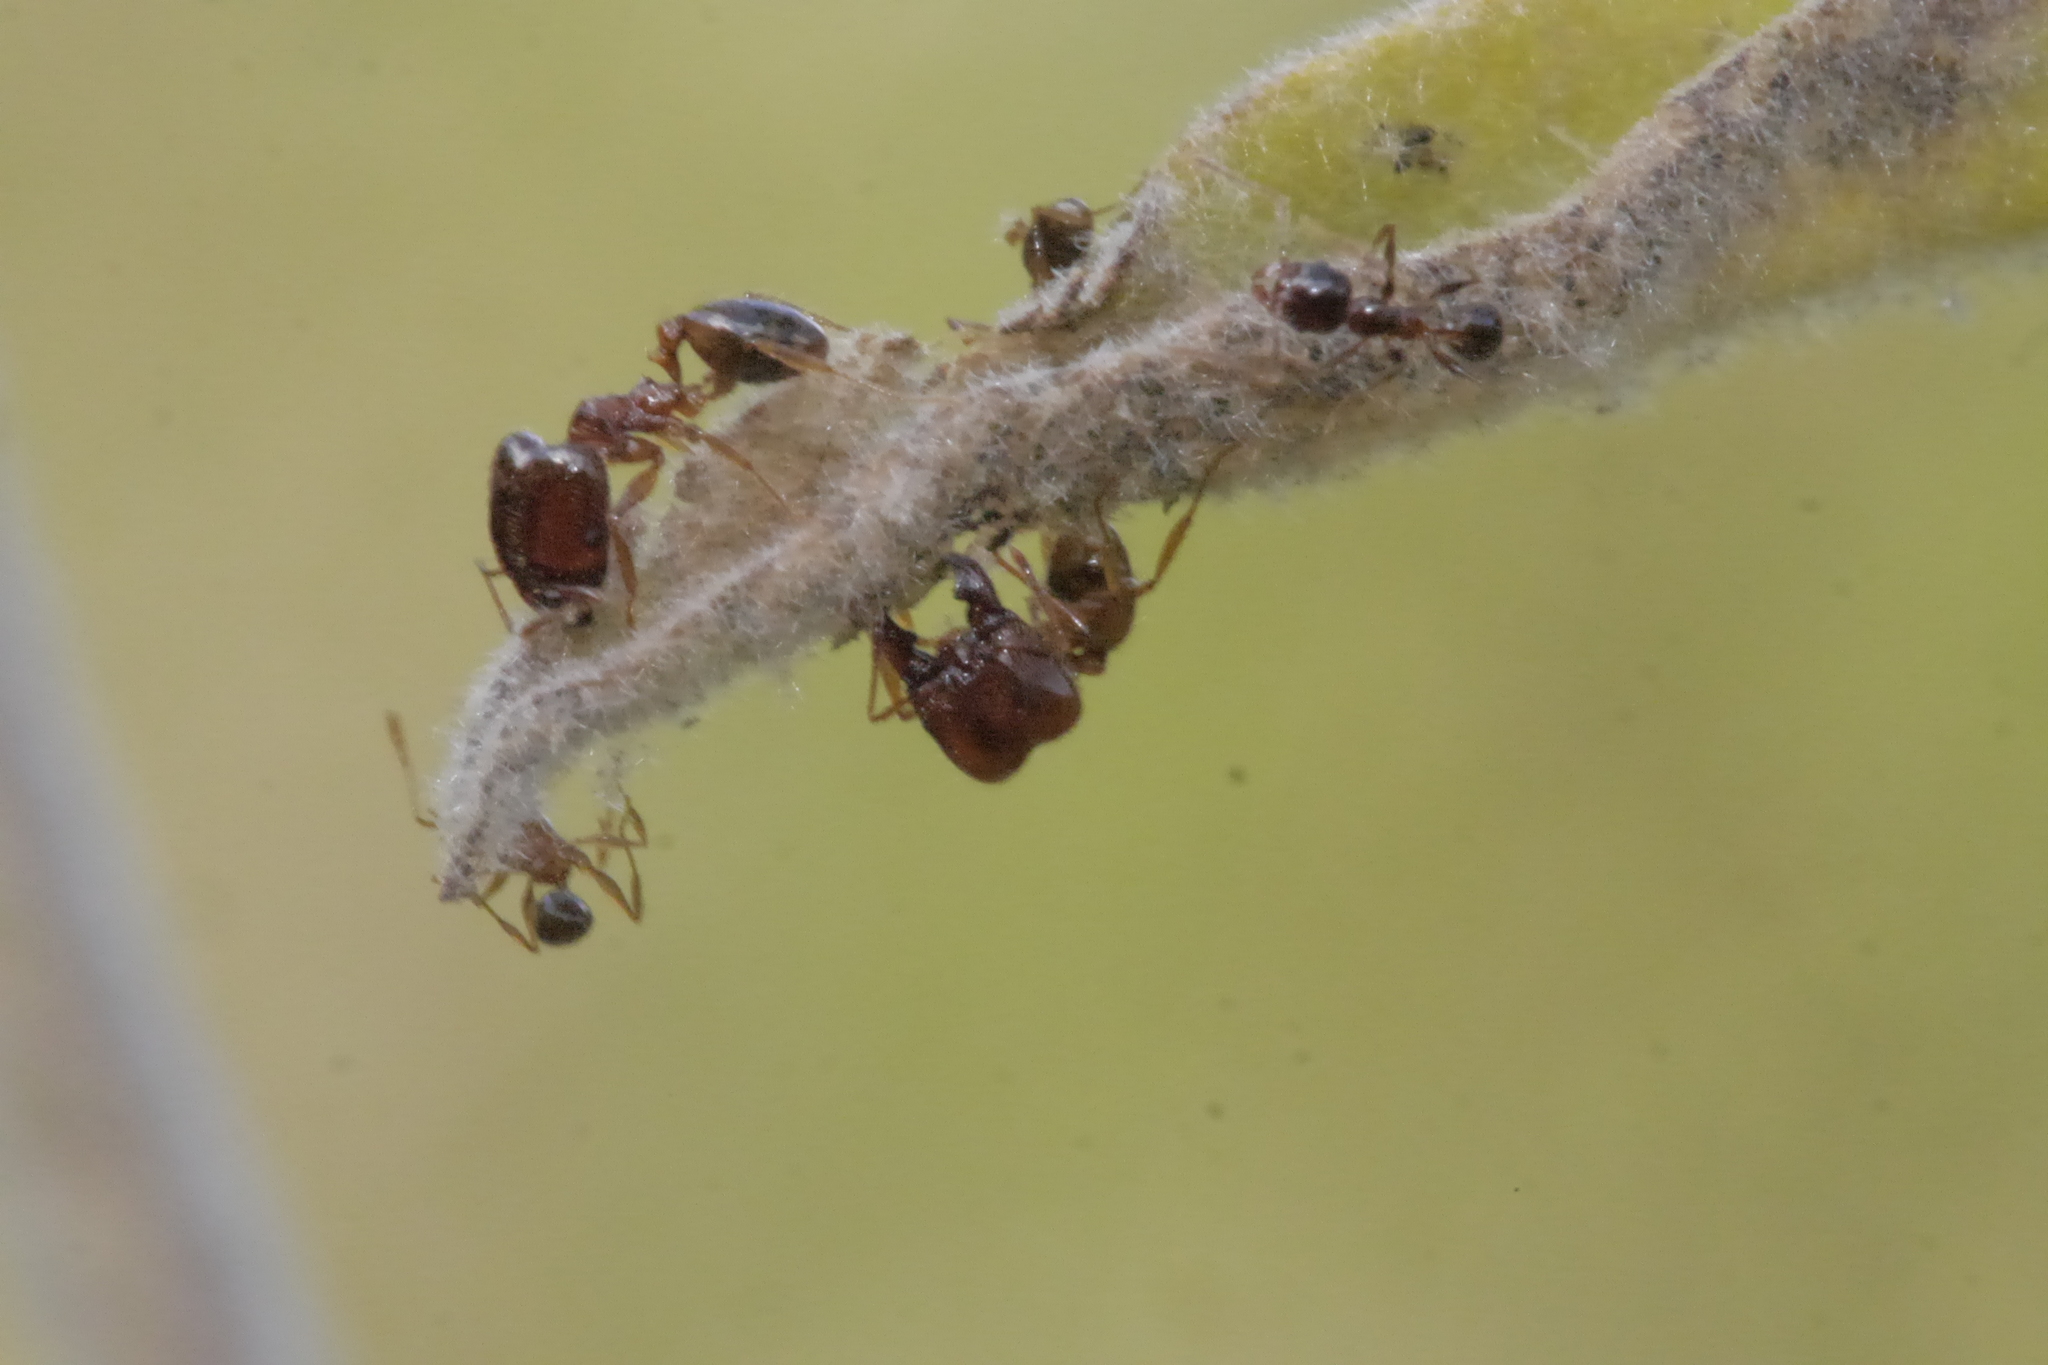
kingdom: Animalia
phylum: Arthropoda
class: Insecta
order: Hymenoptera
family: Formicidae
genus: Pheidole
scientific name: Pheidole pallidula
